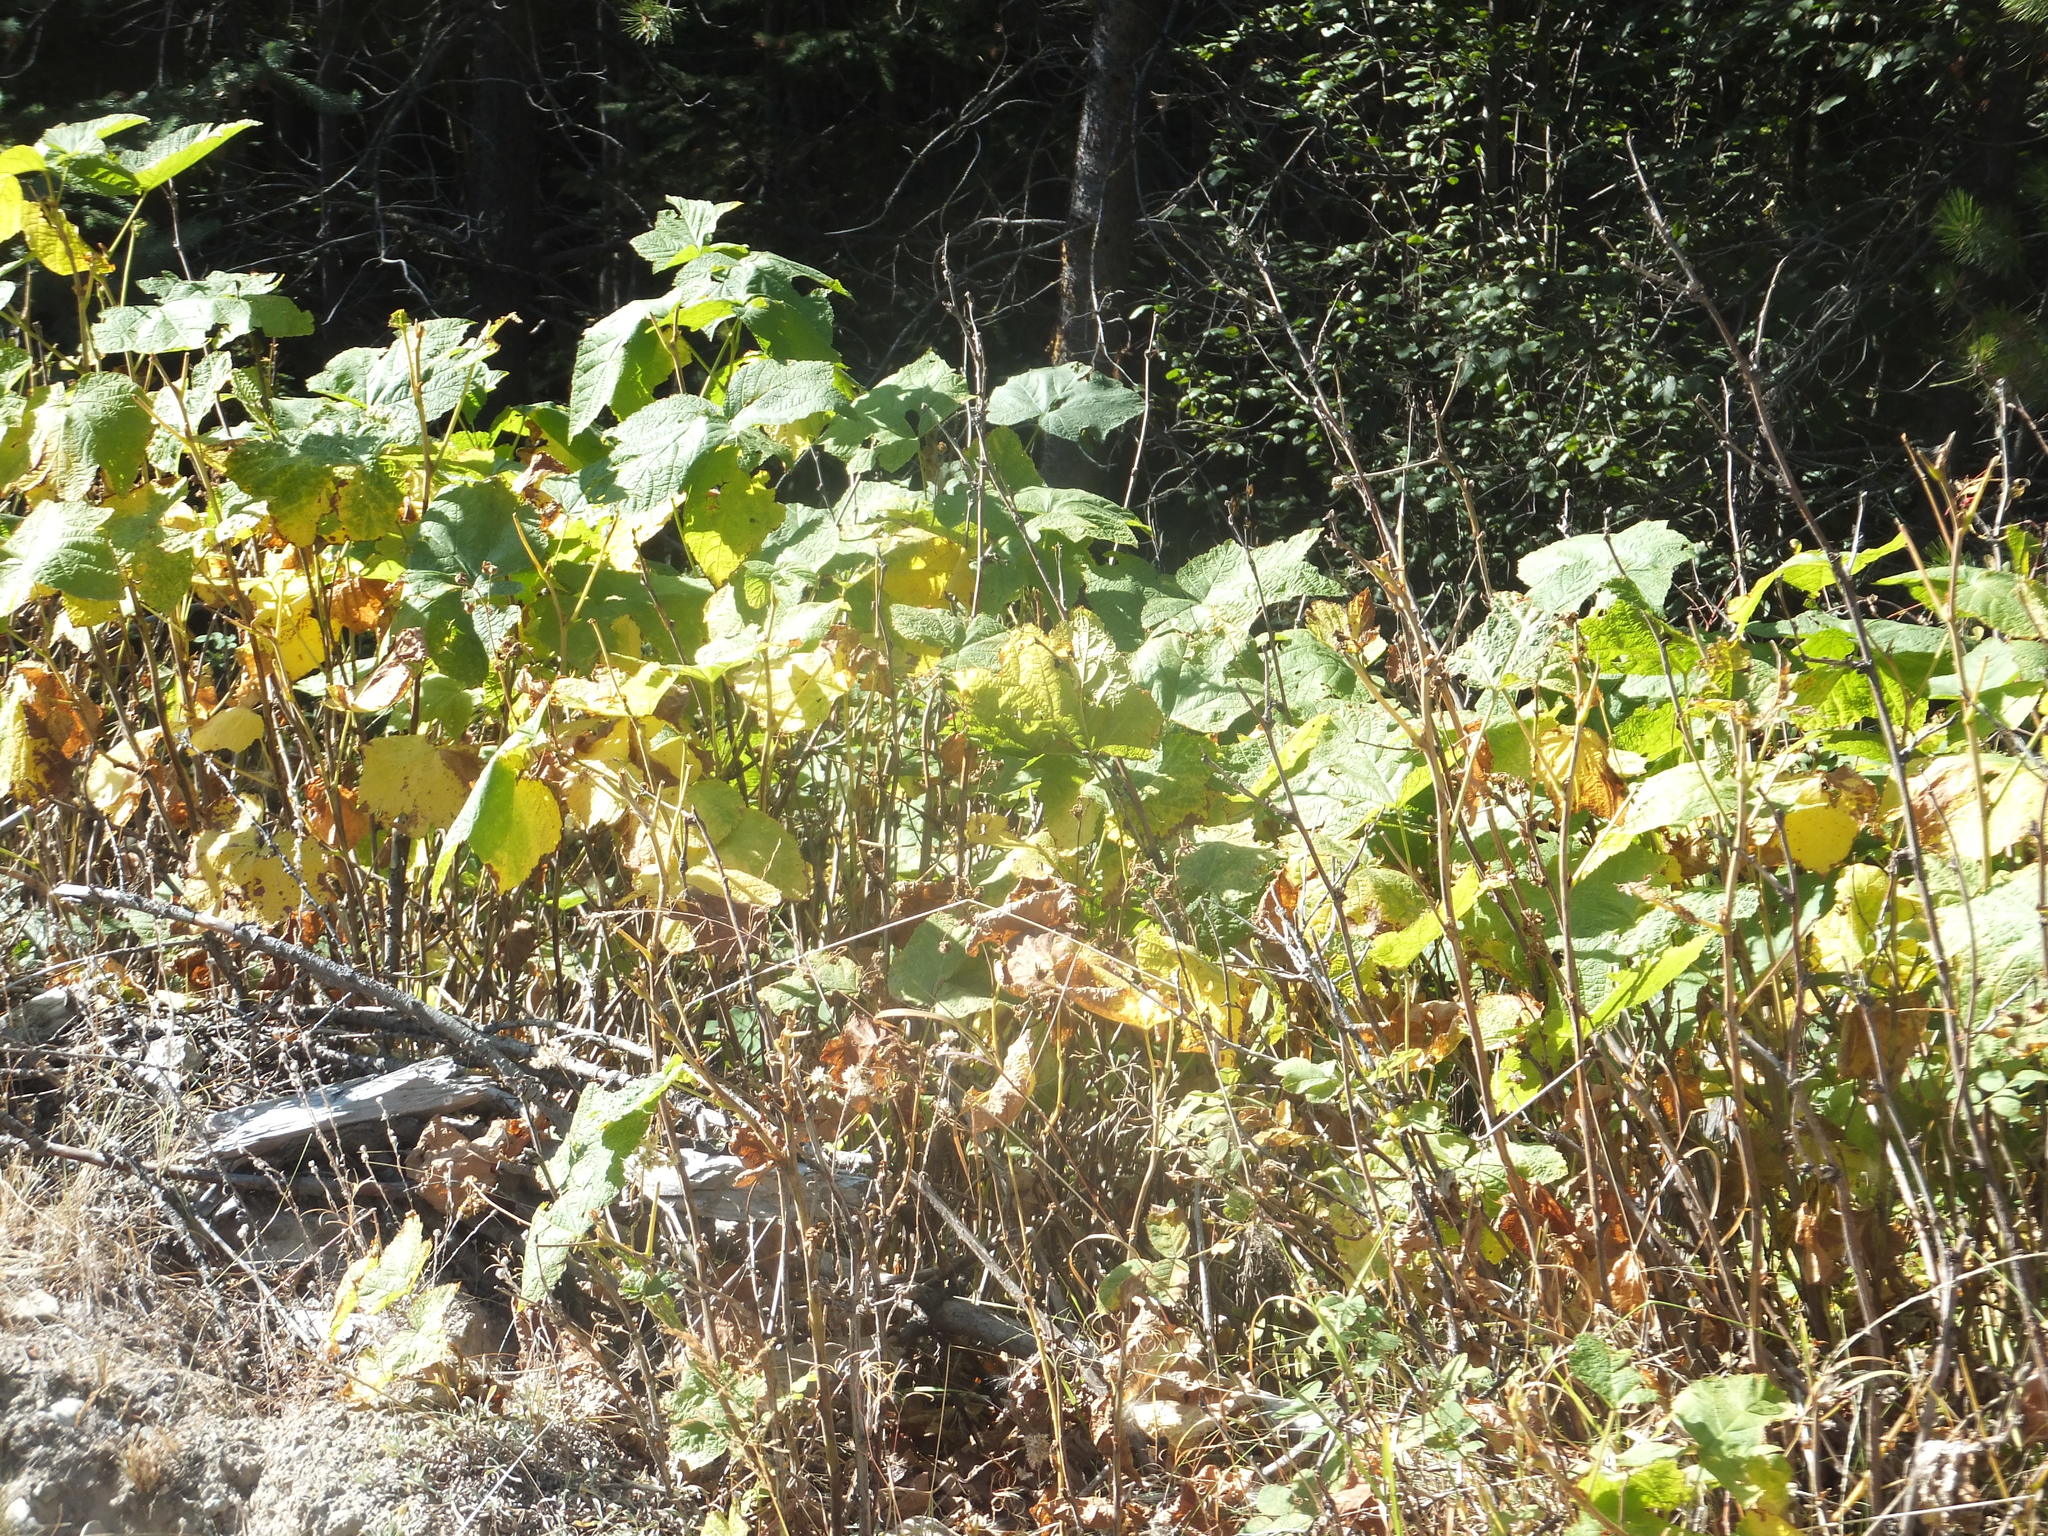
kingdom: Plantae
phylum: Tracheophyta
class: Magnoliopsida
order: Rosales
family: Rosaceae
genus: Rubus
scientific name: Rubus parviflorus
